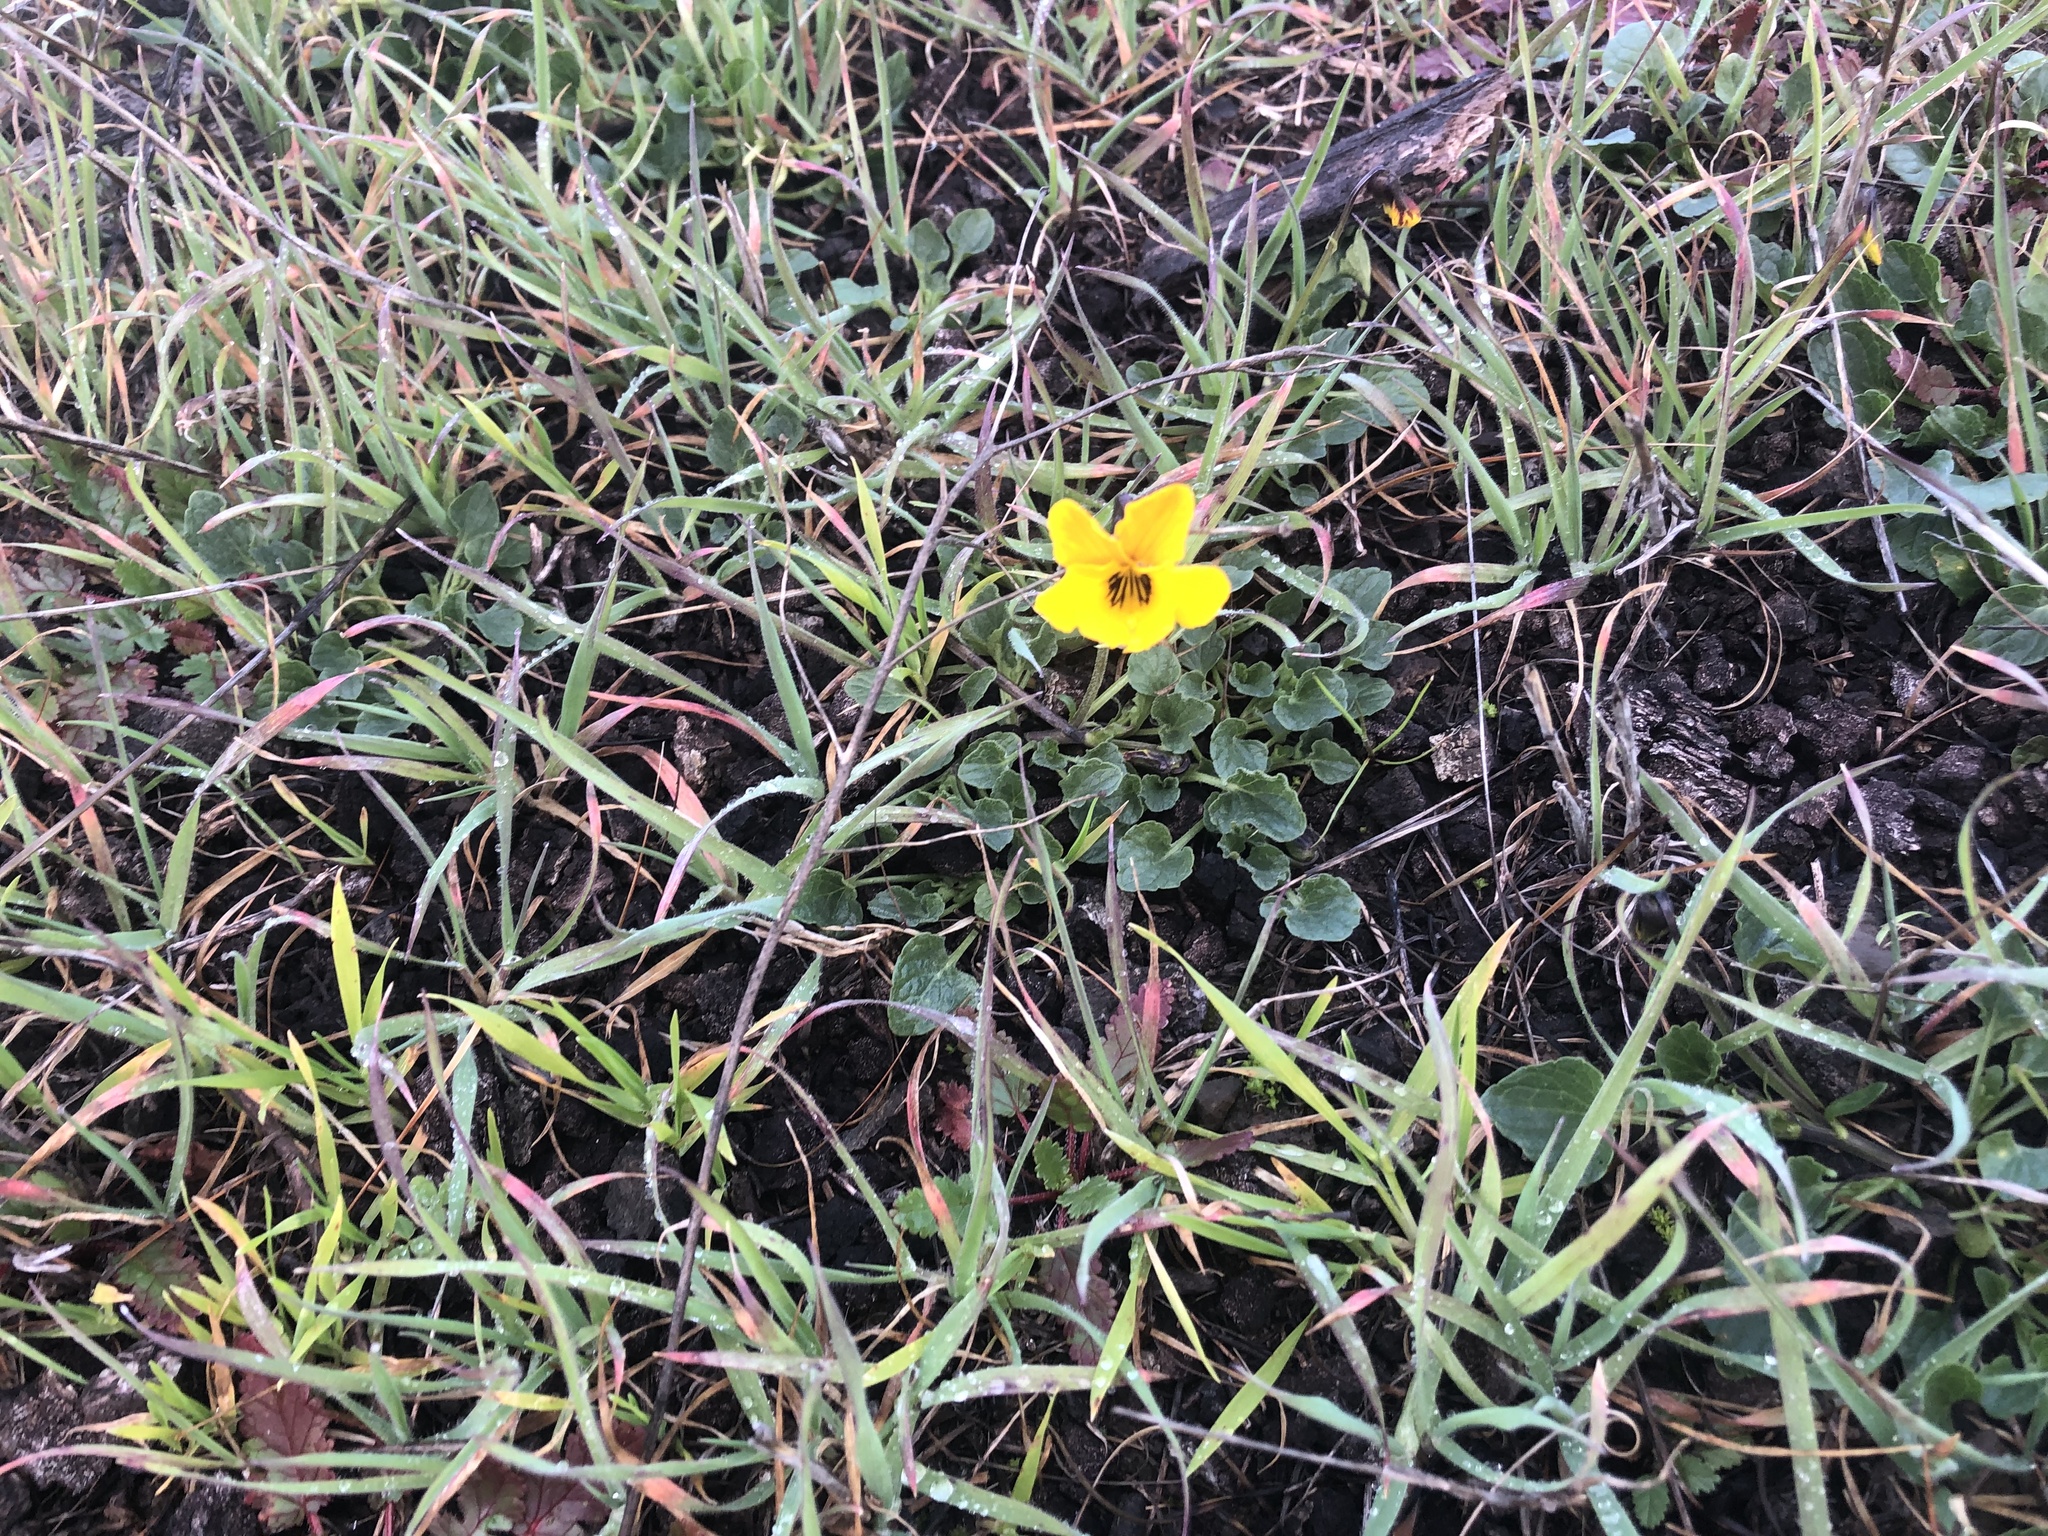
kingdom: Plantae
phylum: Tracheophyta
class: Magnoliopsida
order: Malpighiales
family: Violaceae
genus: Viola
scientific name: Viola pedunculata
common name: California golden violet
